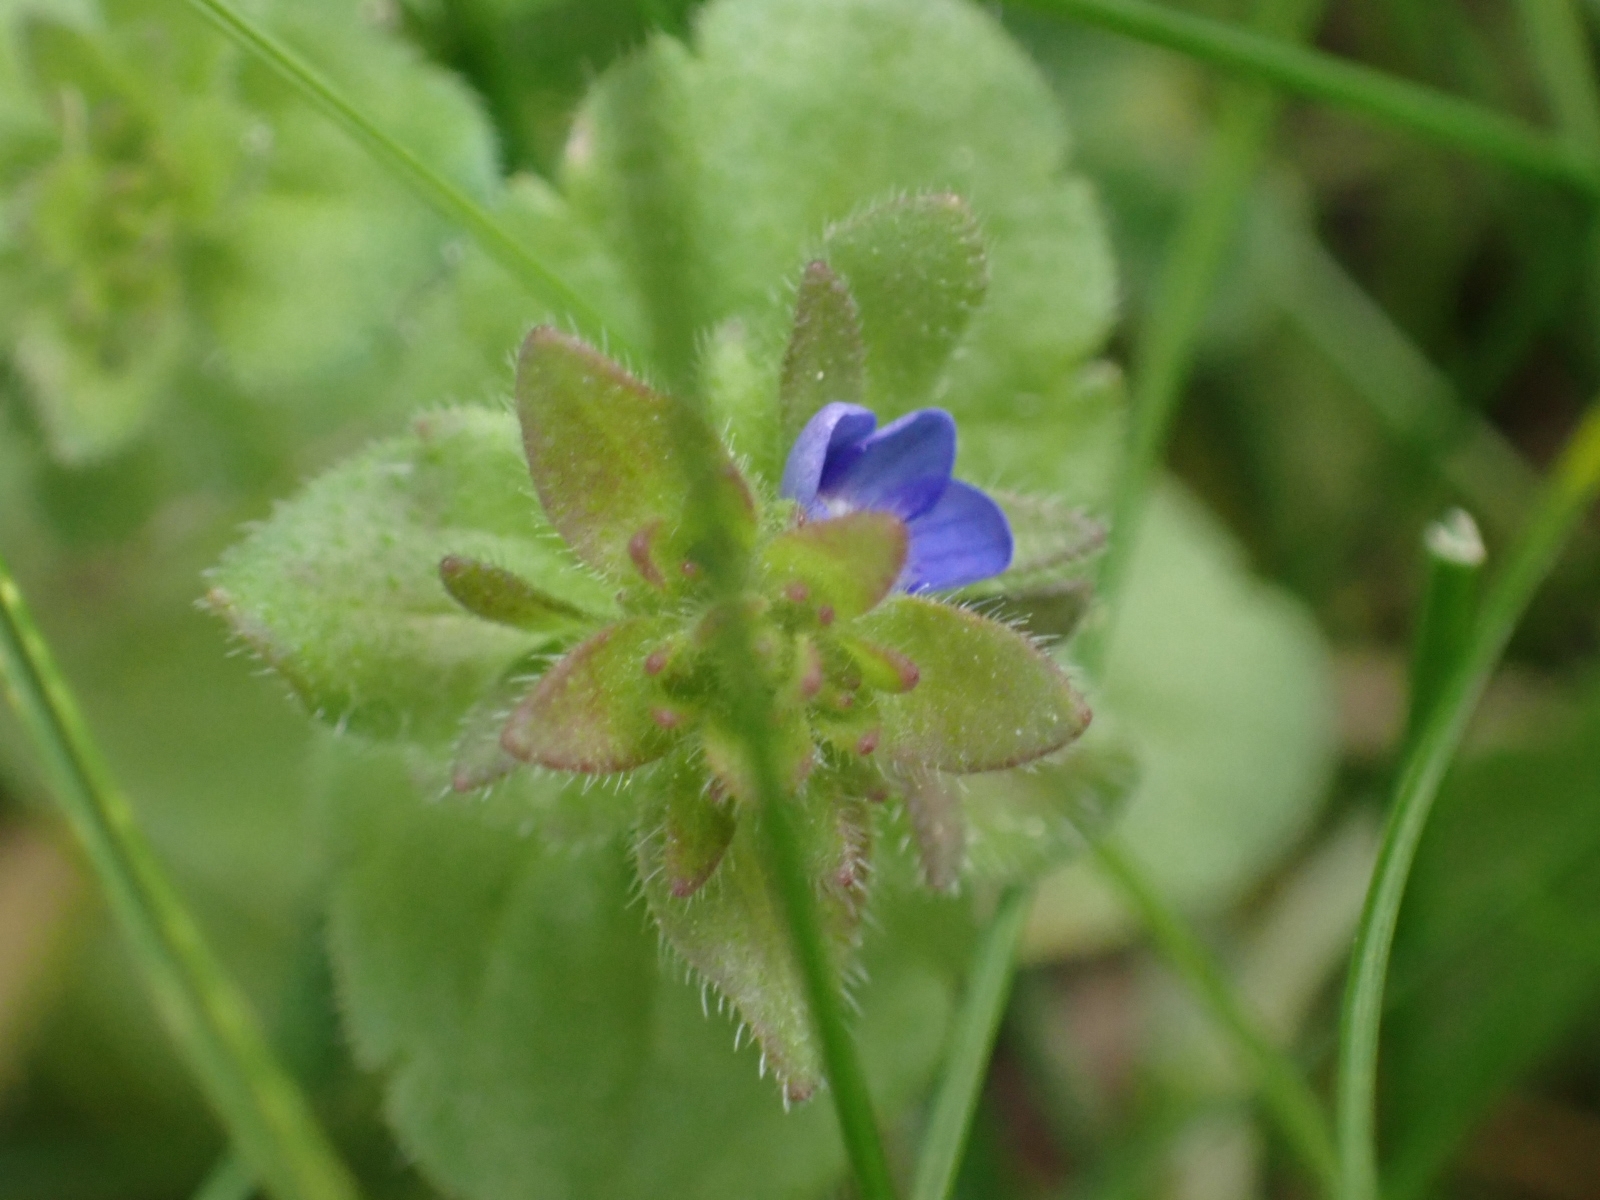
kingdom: Plantae
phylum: Tracheophyta
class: Magnoliopsida
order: Lamiales
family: Plantaginaceae
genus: Veronica
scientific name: Veronica arvensis
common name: Corn speedwell
